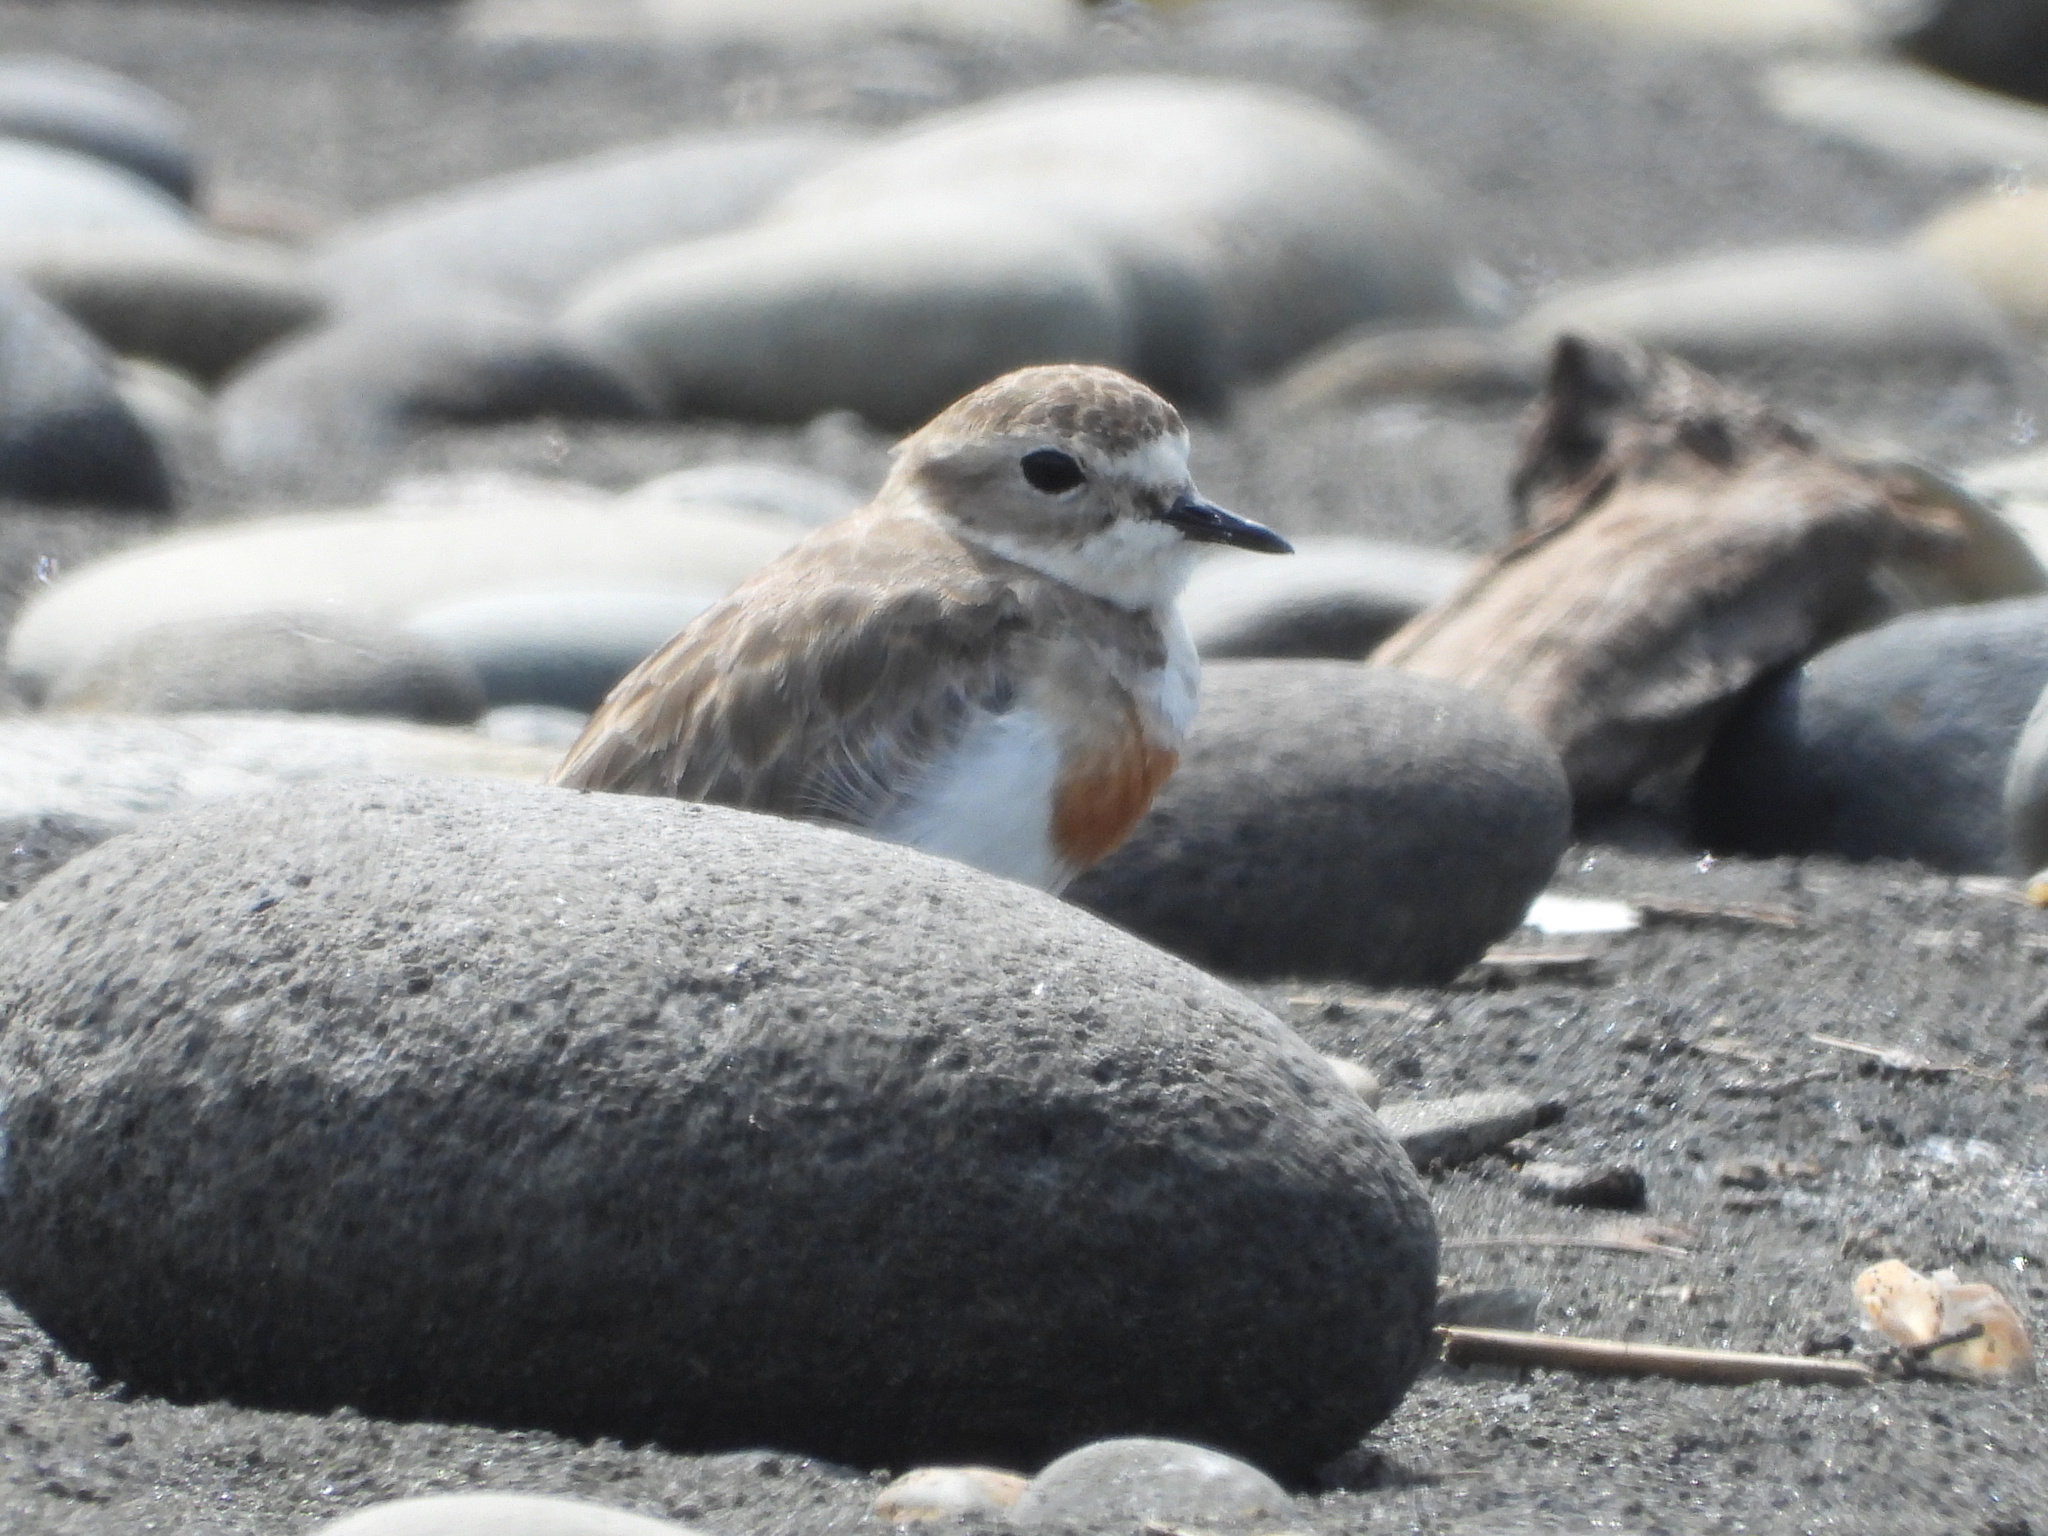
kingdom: Animalia
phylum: Chordata
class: Aves
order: Charadriiformes
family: Charadriidae
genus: Anarhynchus
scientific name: Anarhynchus
